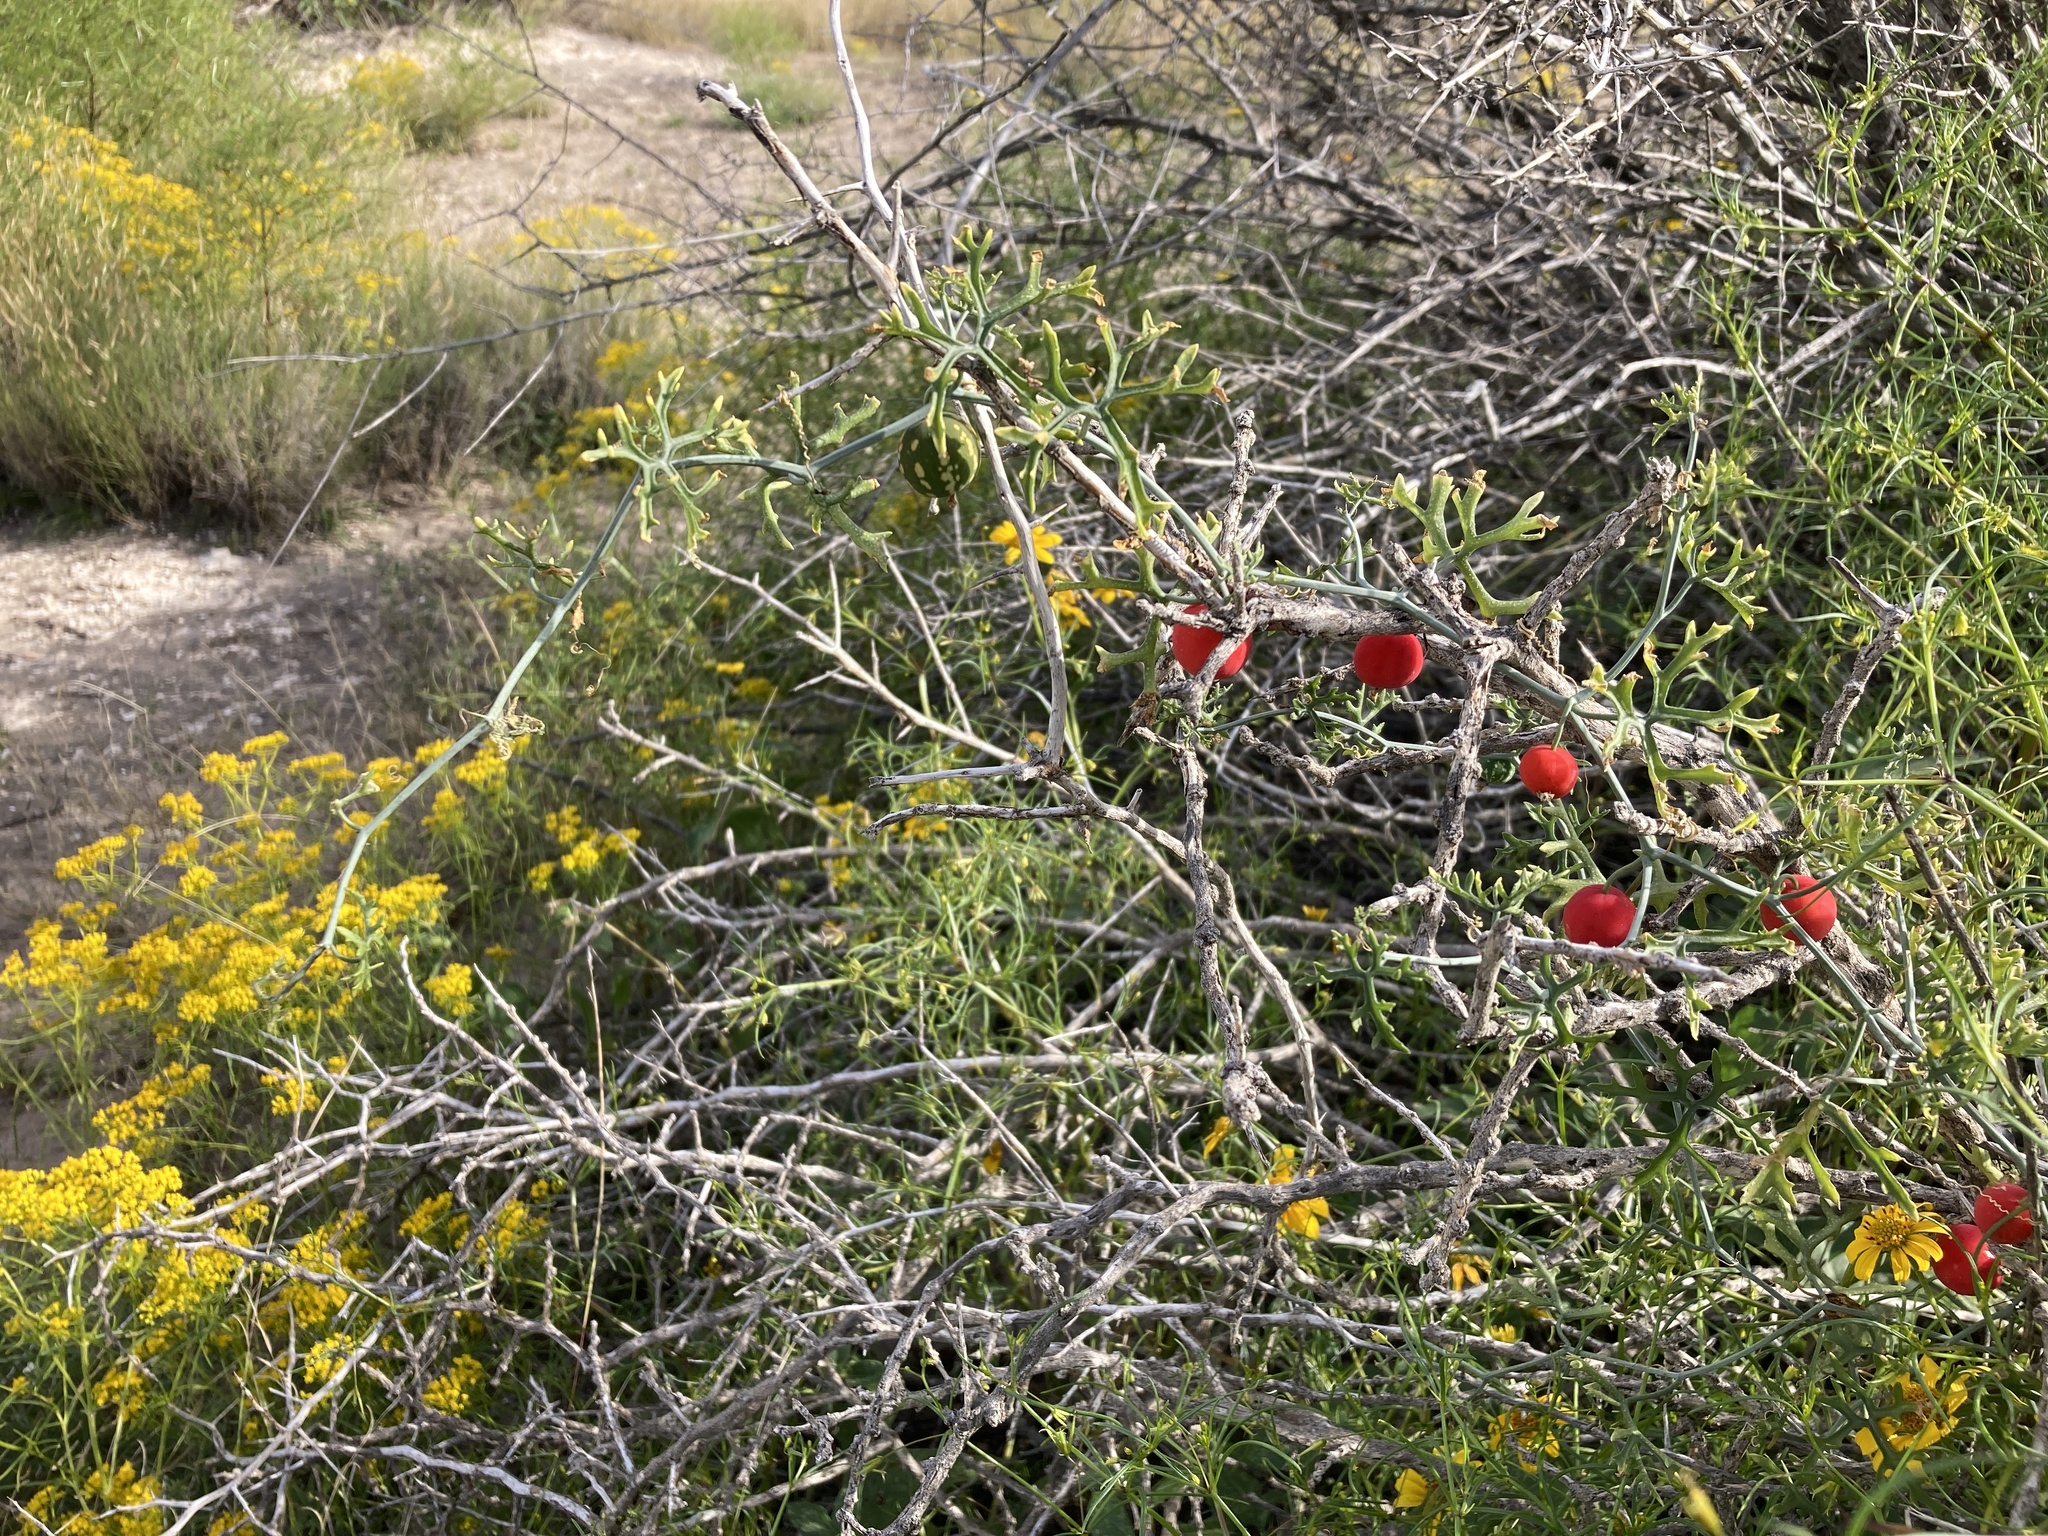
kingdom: Plantae
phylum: Tracheophyta
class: Magnoliopsida
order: Cucurbitales
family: Cucurbitaceae
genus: Ibervillea
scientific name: Ibervillea tenuisecta
